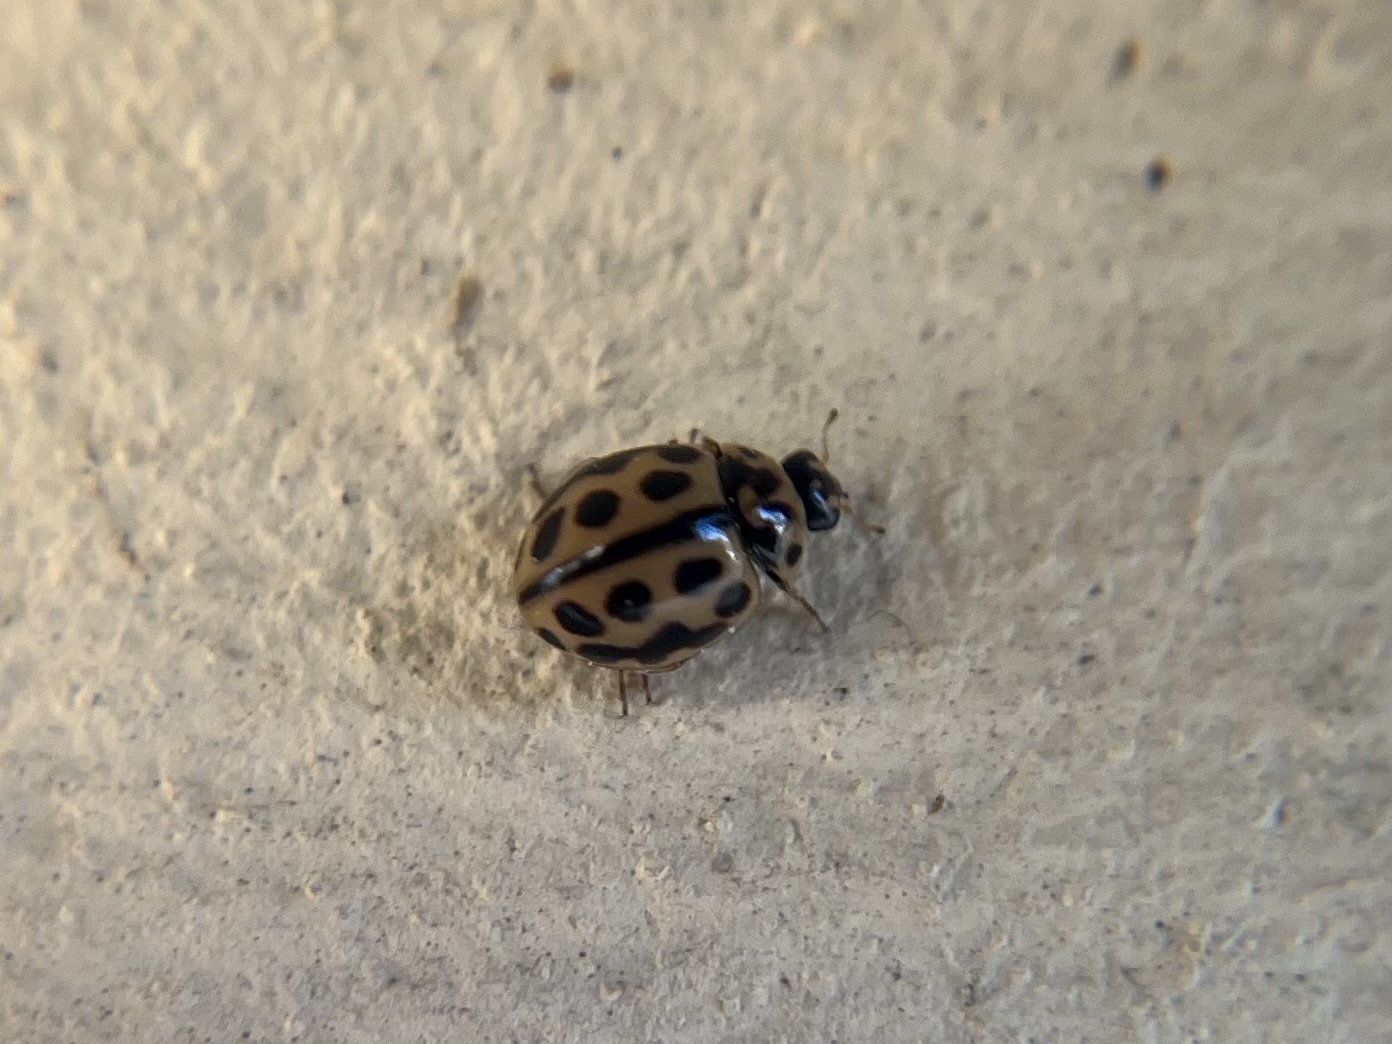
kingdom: Animalia
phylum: Arthropoda
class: Insecta
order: Coleoptera
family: Coccinellidae
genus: Tytthaspis
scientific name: Tytthaspis sedecimpunctata
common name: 16-spot ladybird
